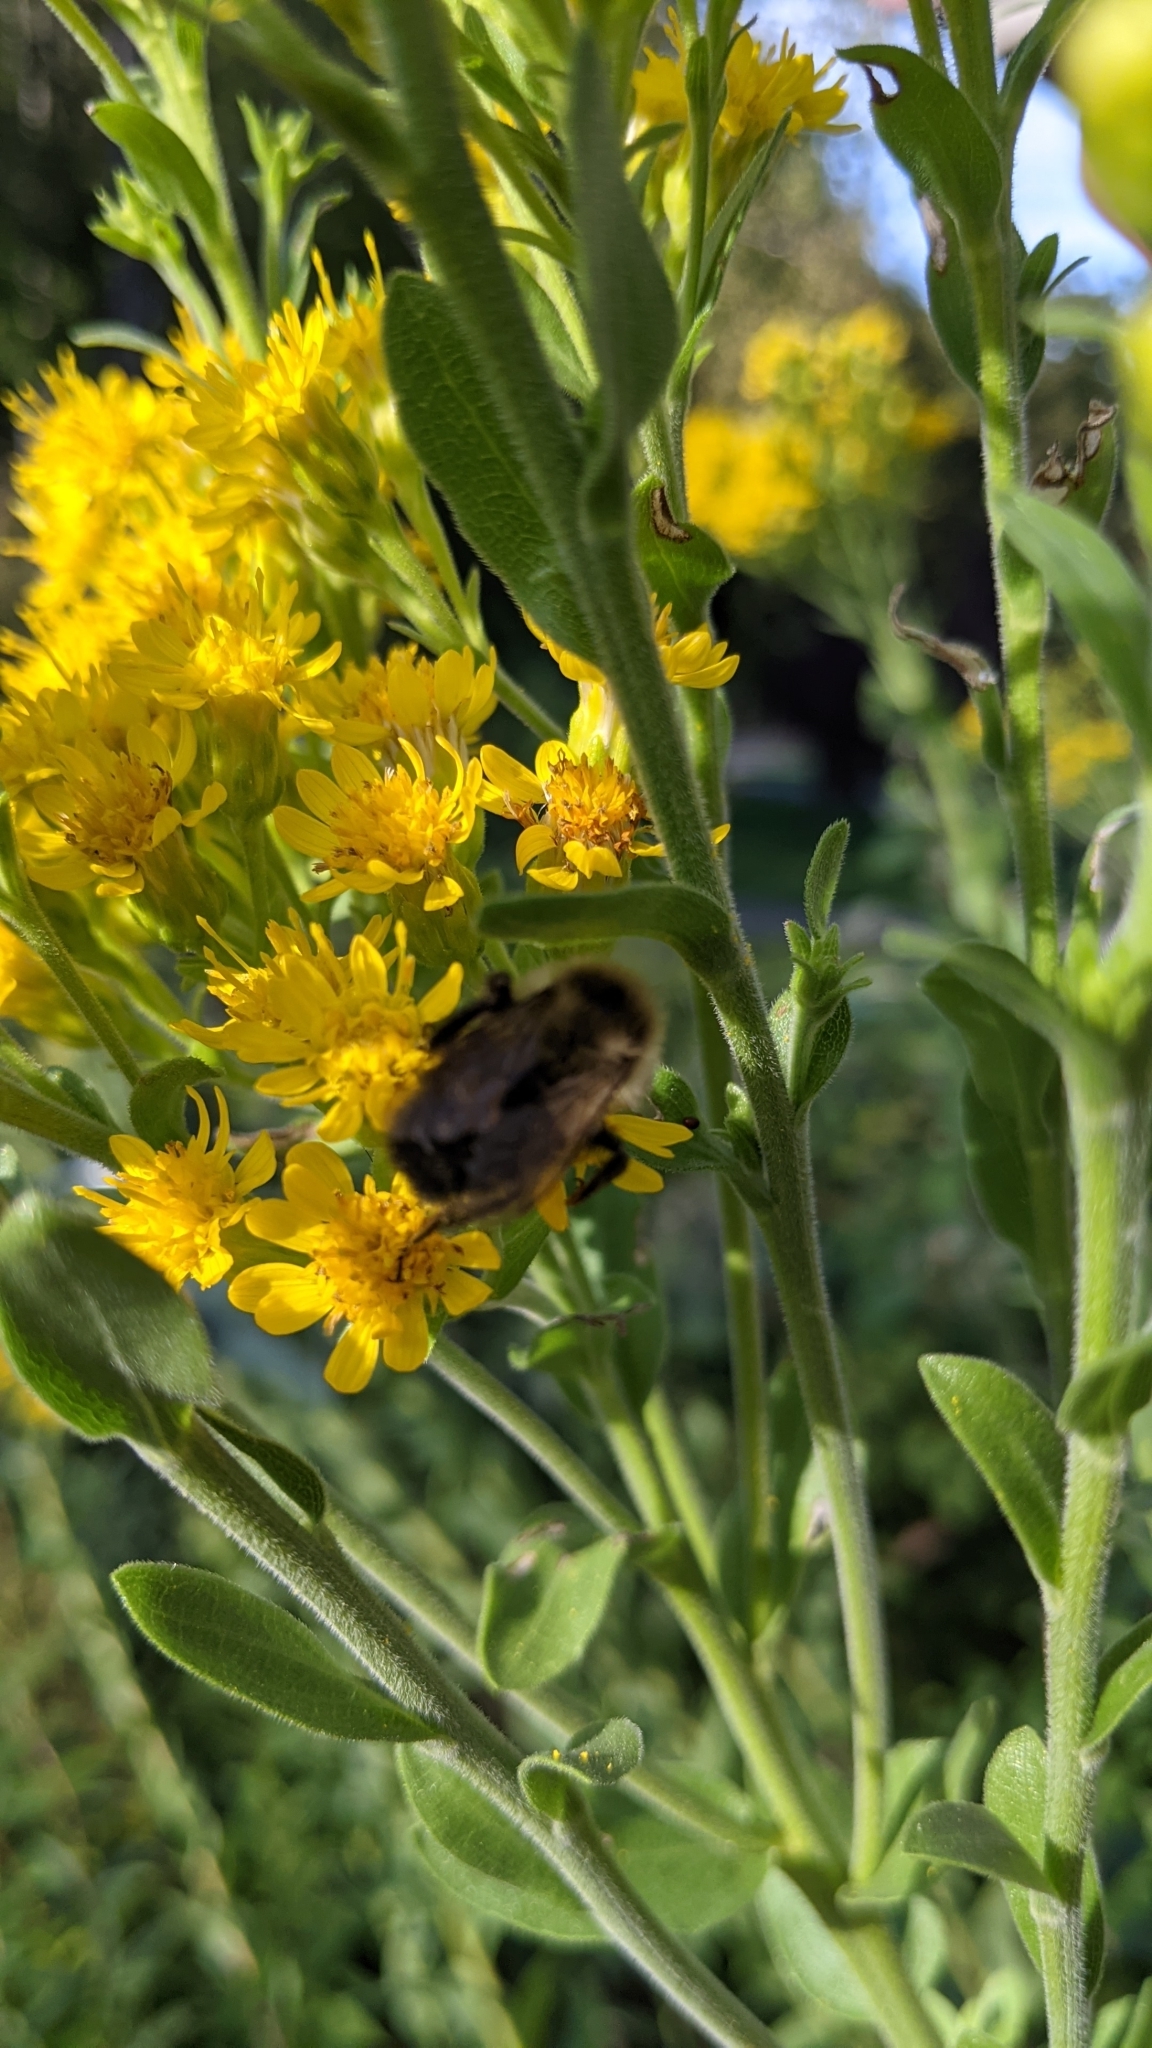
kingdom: Animalia
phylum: Arthropoda
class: Insecta
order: Hymenoptera
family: Apidae
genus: Bombus
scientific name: Bombus impatiens
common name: Common eastern bumble bee
